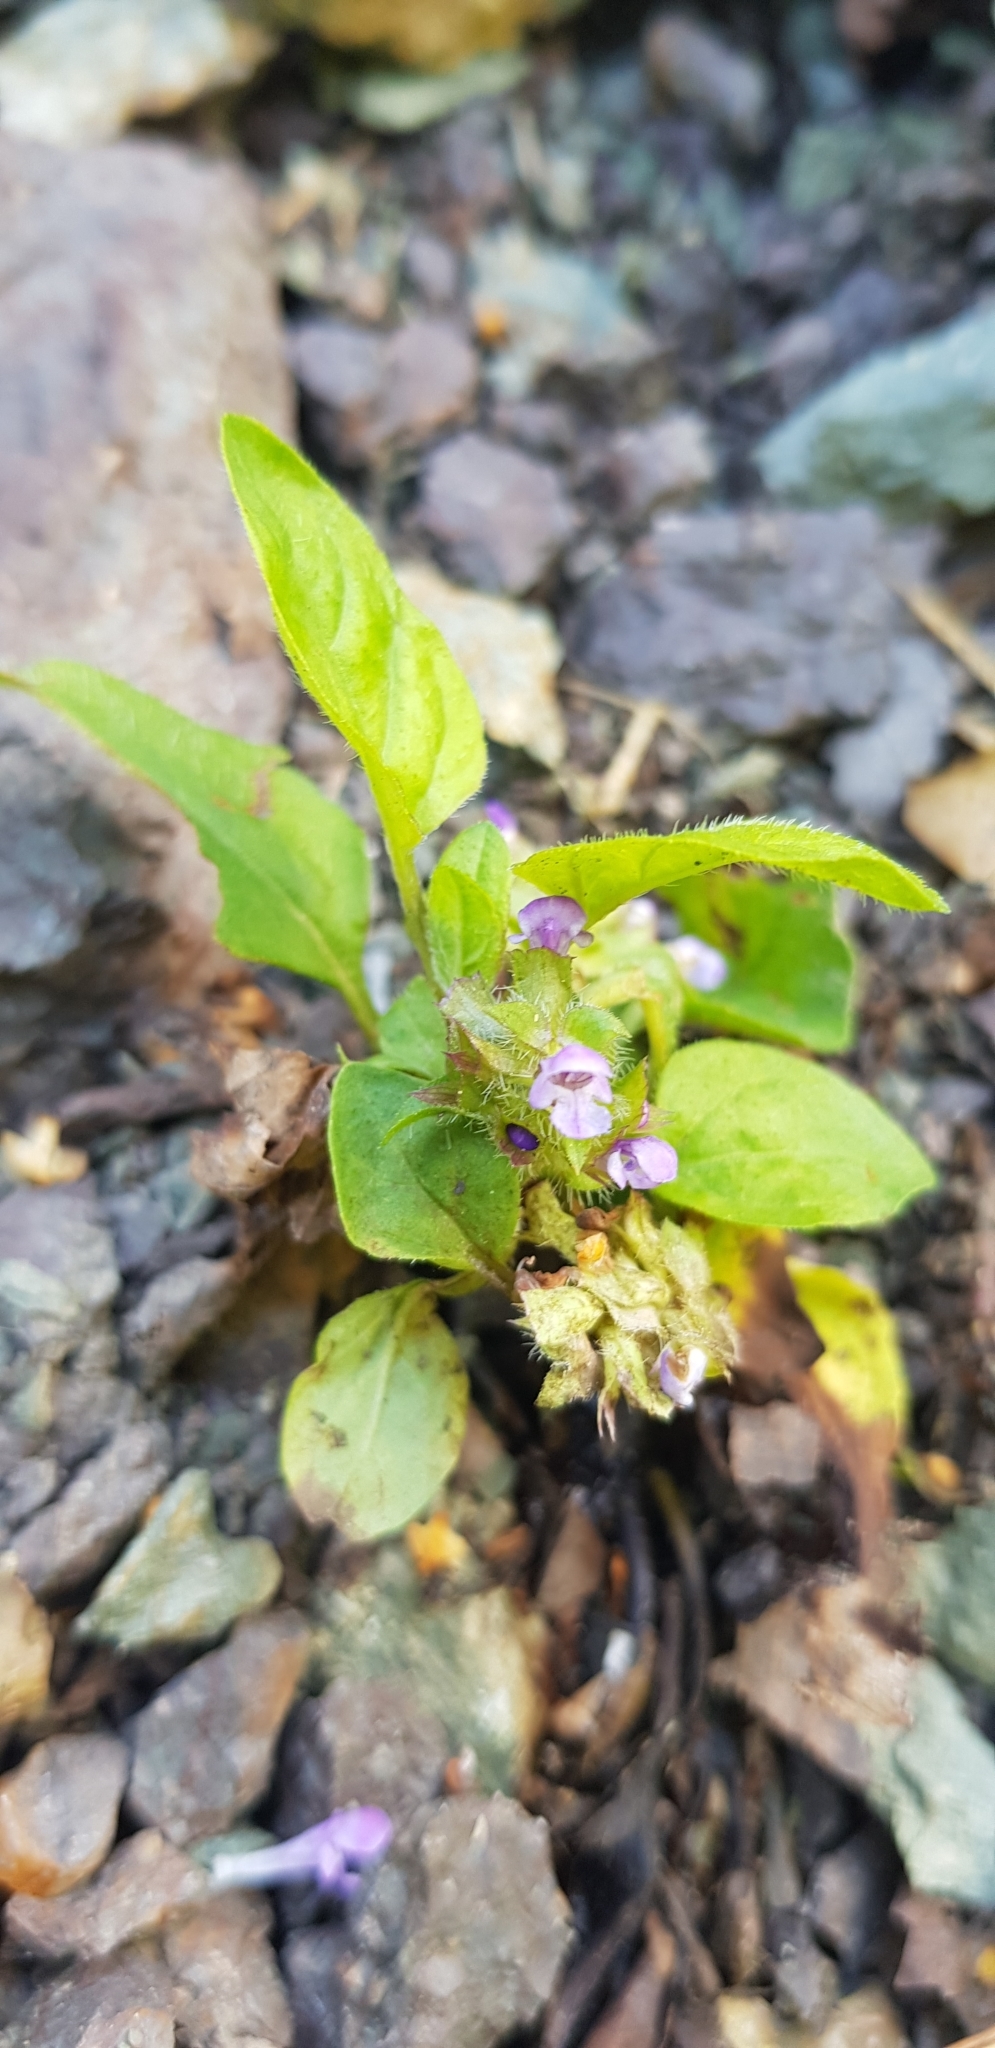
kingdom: Plantae
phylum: Tracheophyta
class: Magnoliopsida
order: Lamiales
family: Lamiaceae
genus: Prunella
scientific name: Prunella vulgaris
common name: Heal-all
